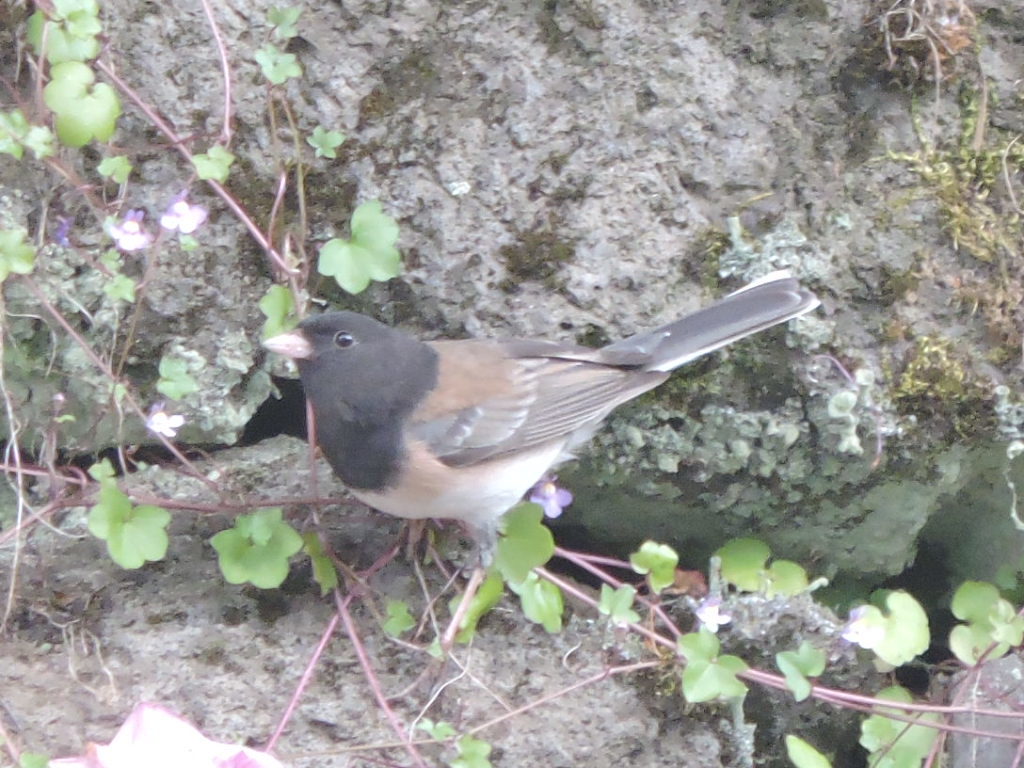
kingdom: Animalia
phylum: Chordata
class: Aves
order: Passeriformes
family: Passerellidae
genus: Junco
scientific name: Junco hyemalis
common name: Dark-eyed junco
